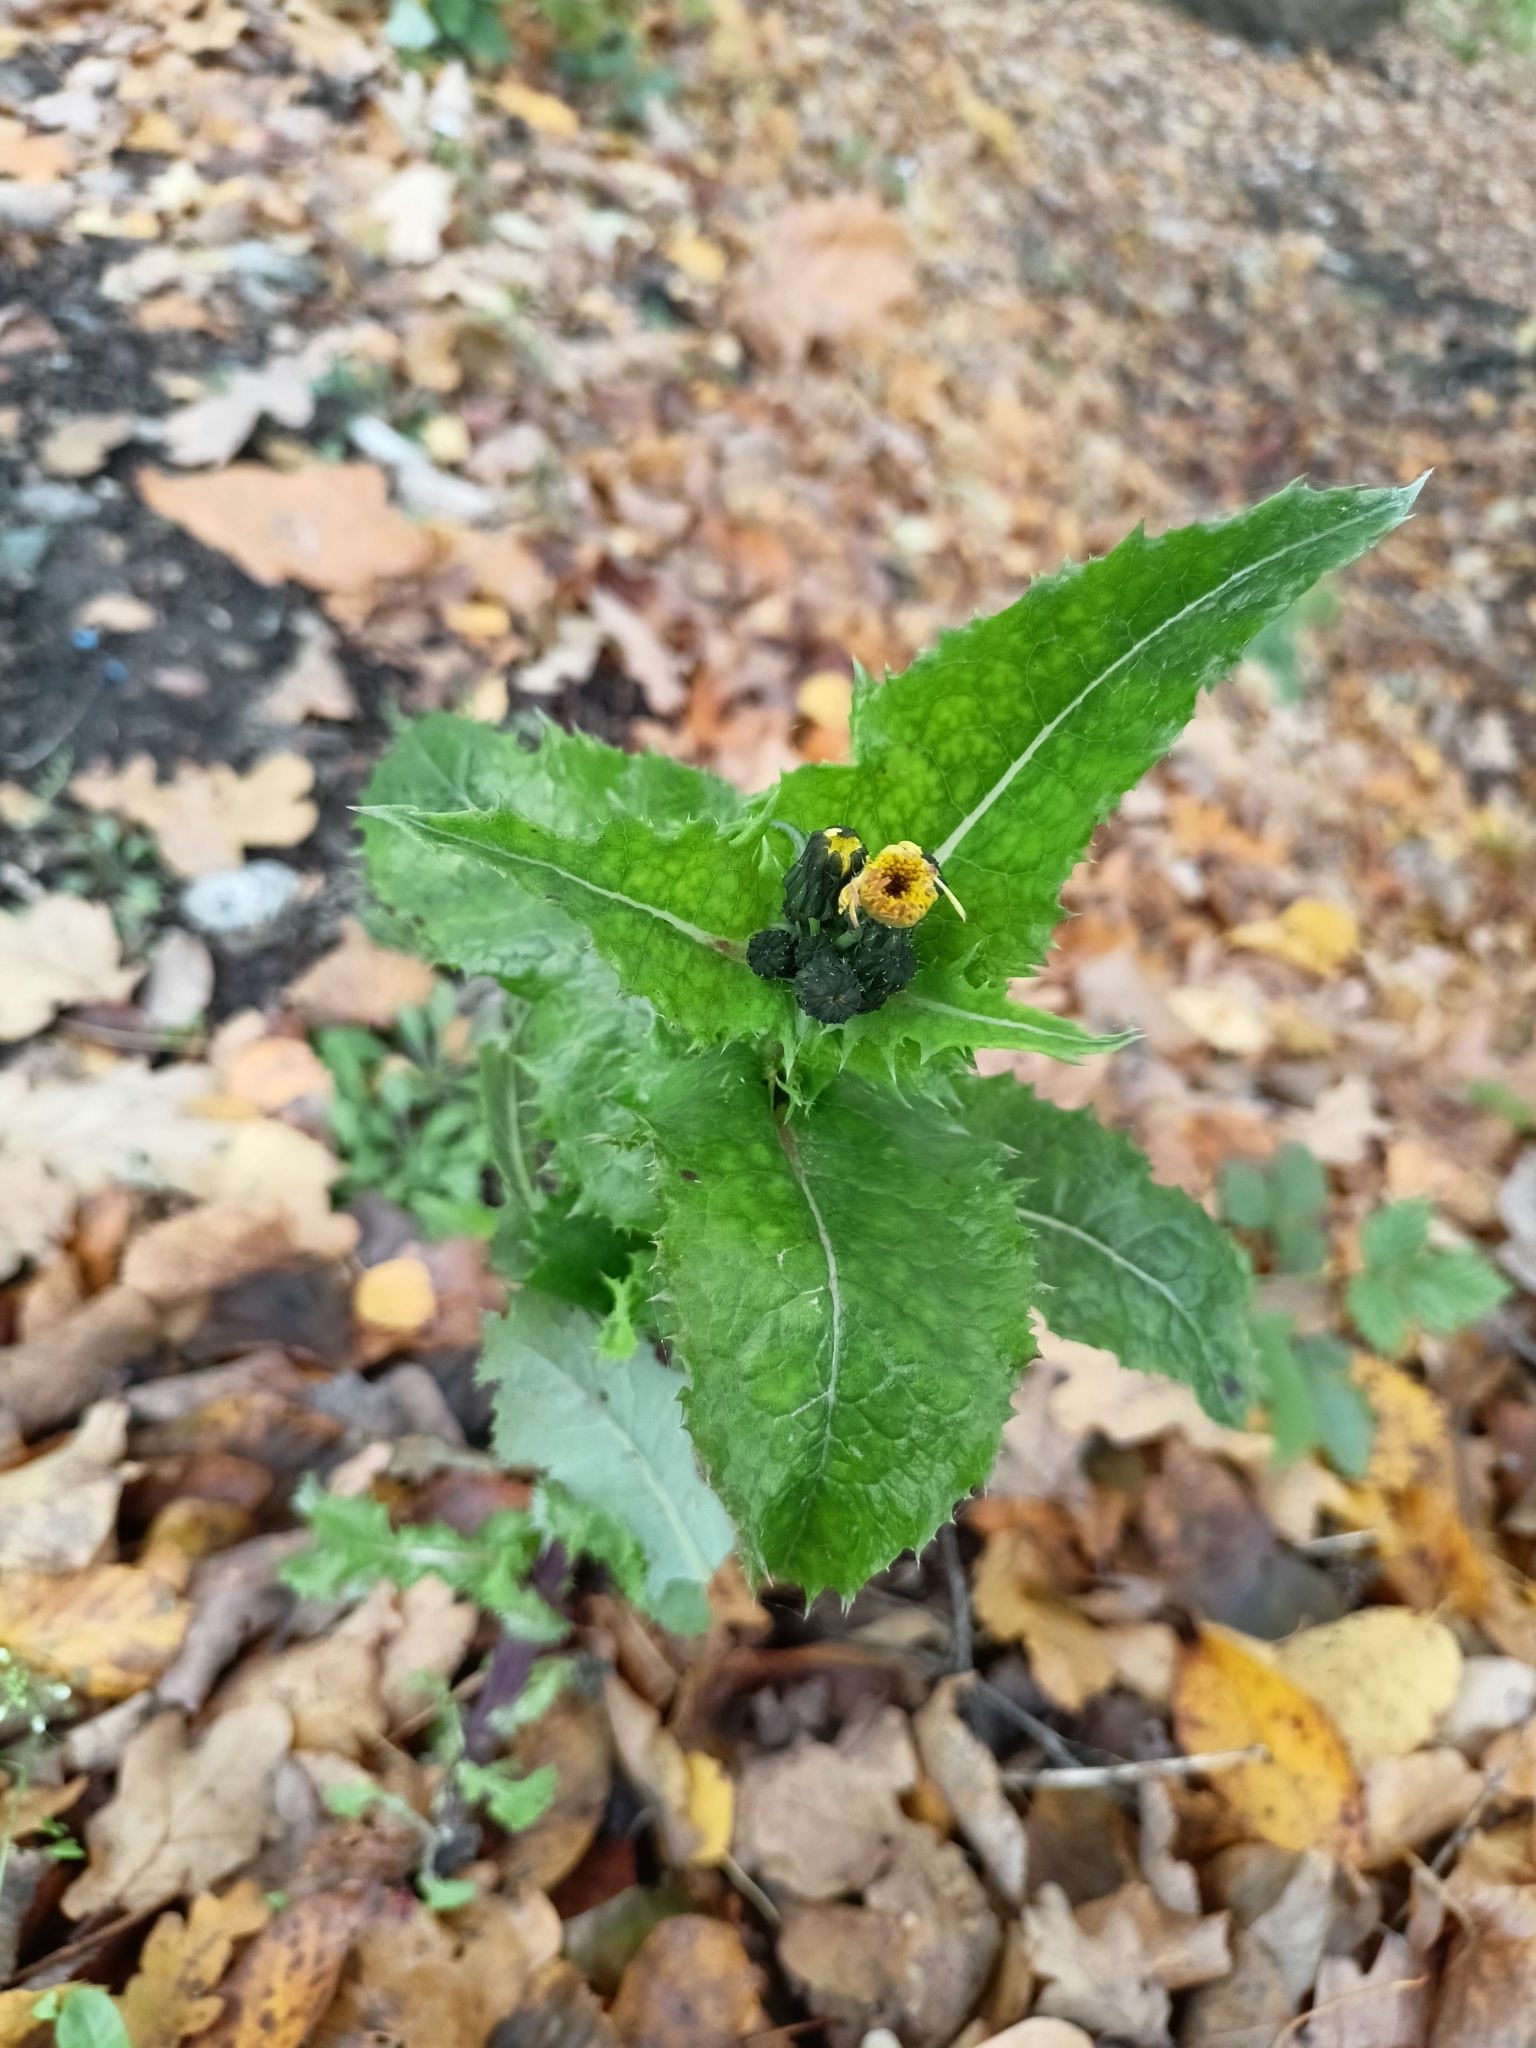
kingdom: Plantae
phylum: Tracheophyta
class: Magnoliopsida
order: Asterales
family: Asteraceae
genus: Sonchus
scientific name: Sonchus asper
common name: Prickly sow-thistle
